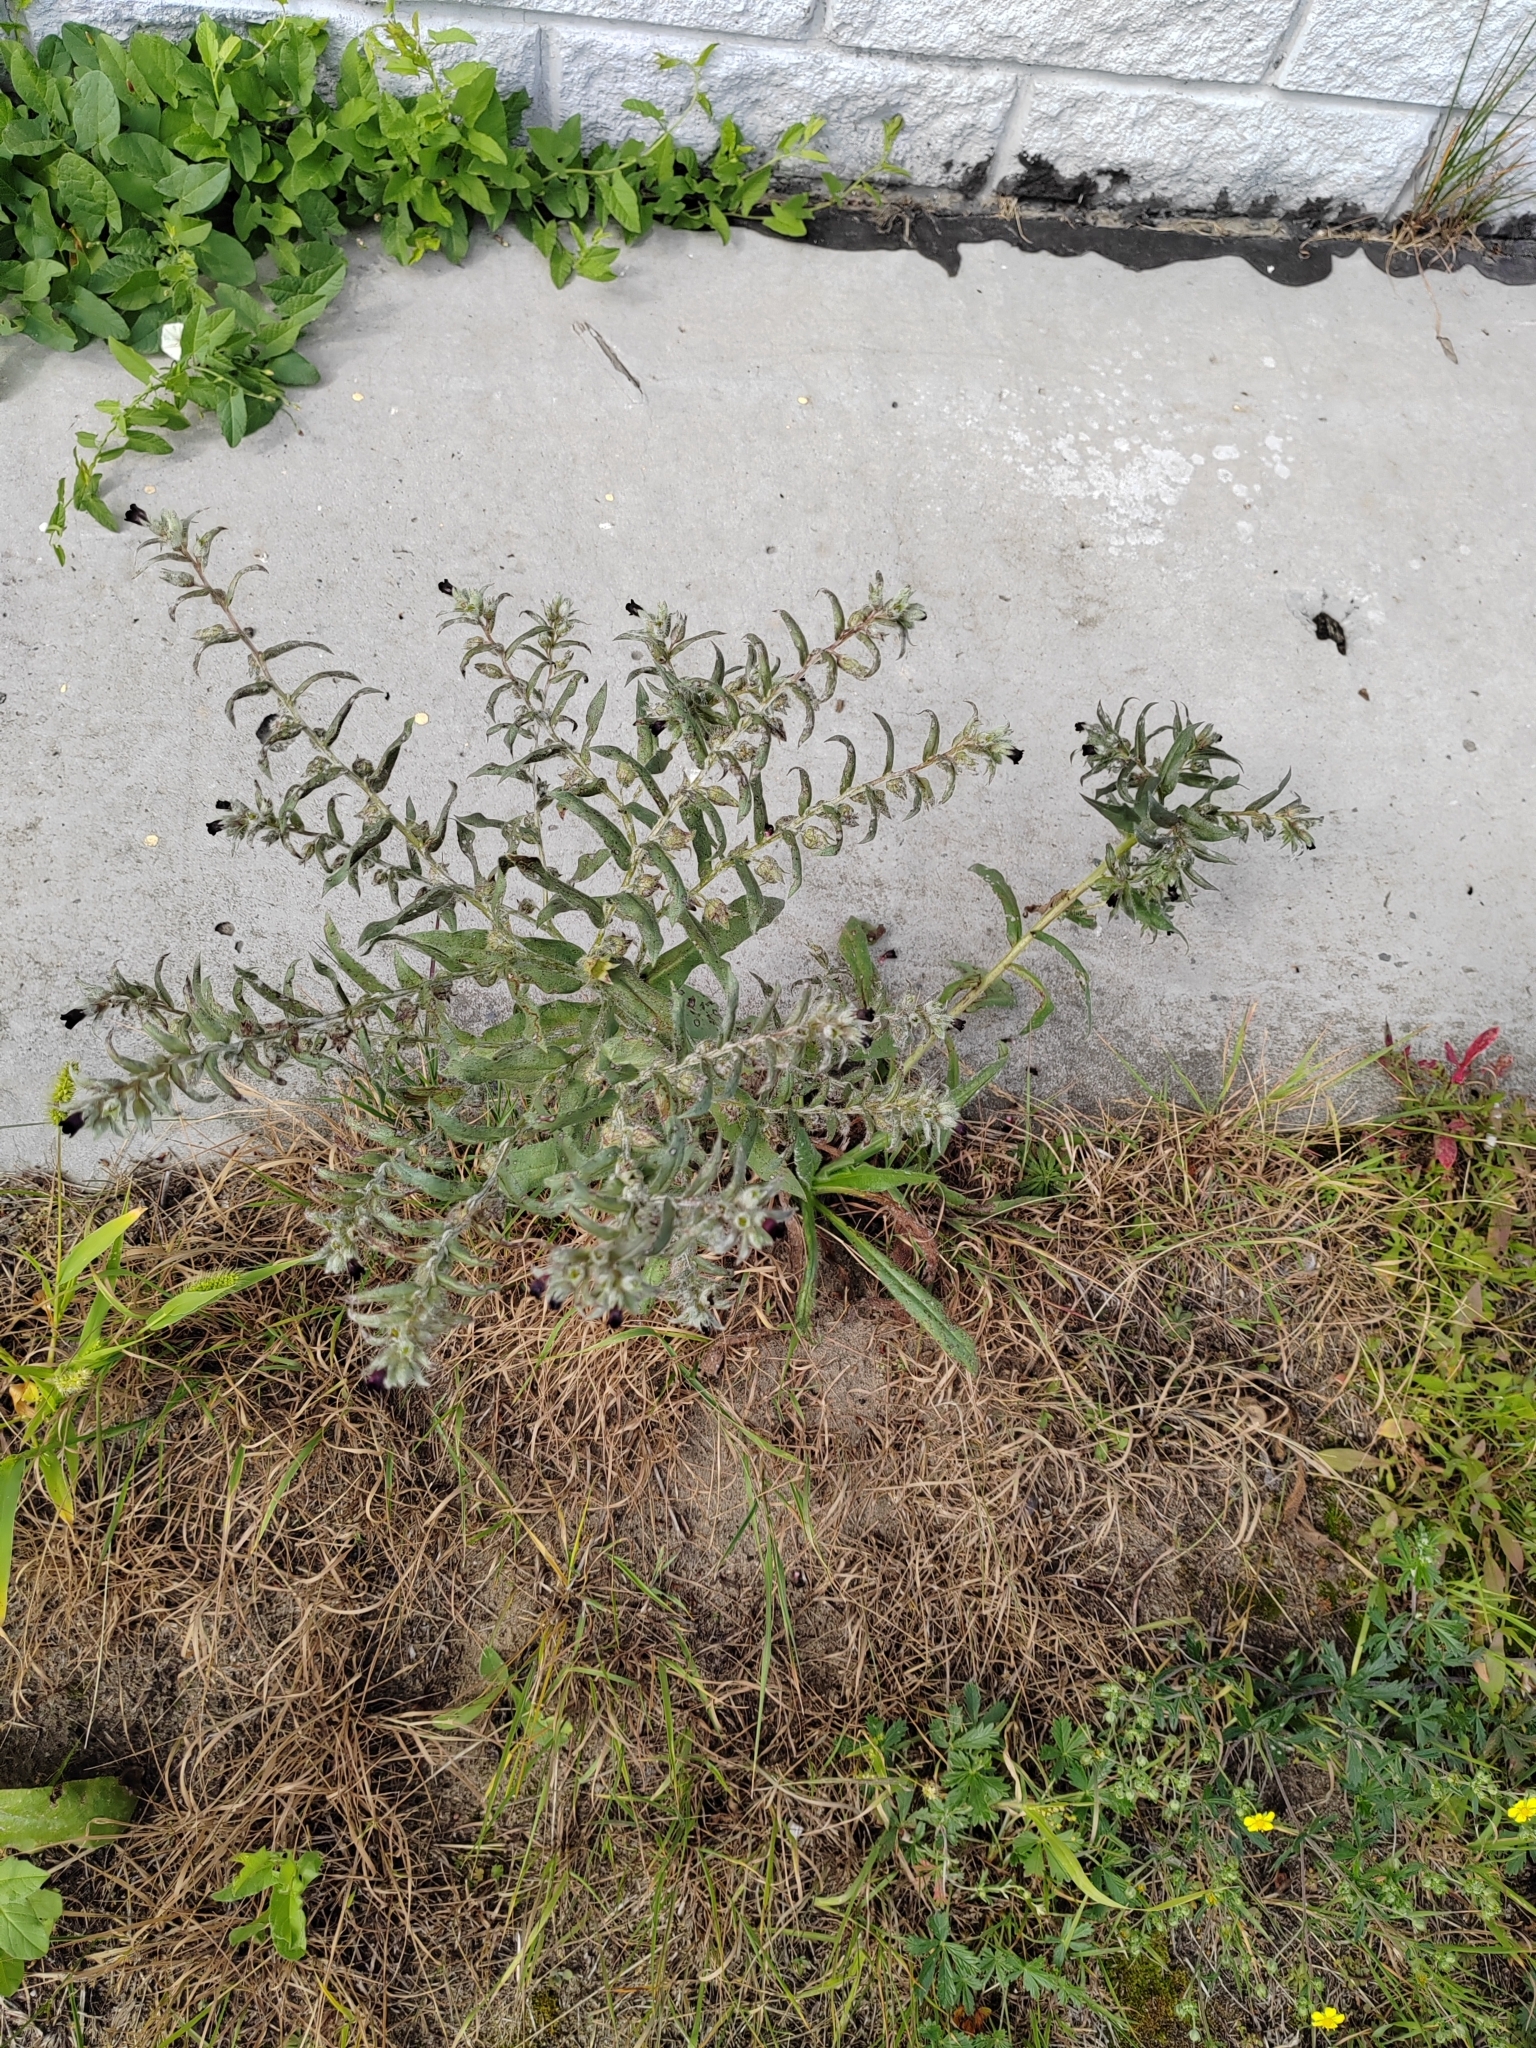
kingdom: Plantae
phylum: Tracheophyta
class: Magnoliopsida
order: Boraginales
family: Boraginaceae
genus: Nonea
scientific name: Nonea pulla
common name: Brown nonea
